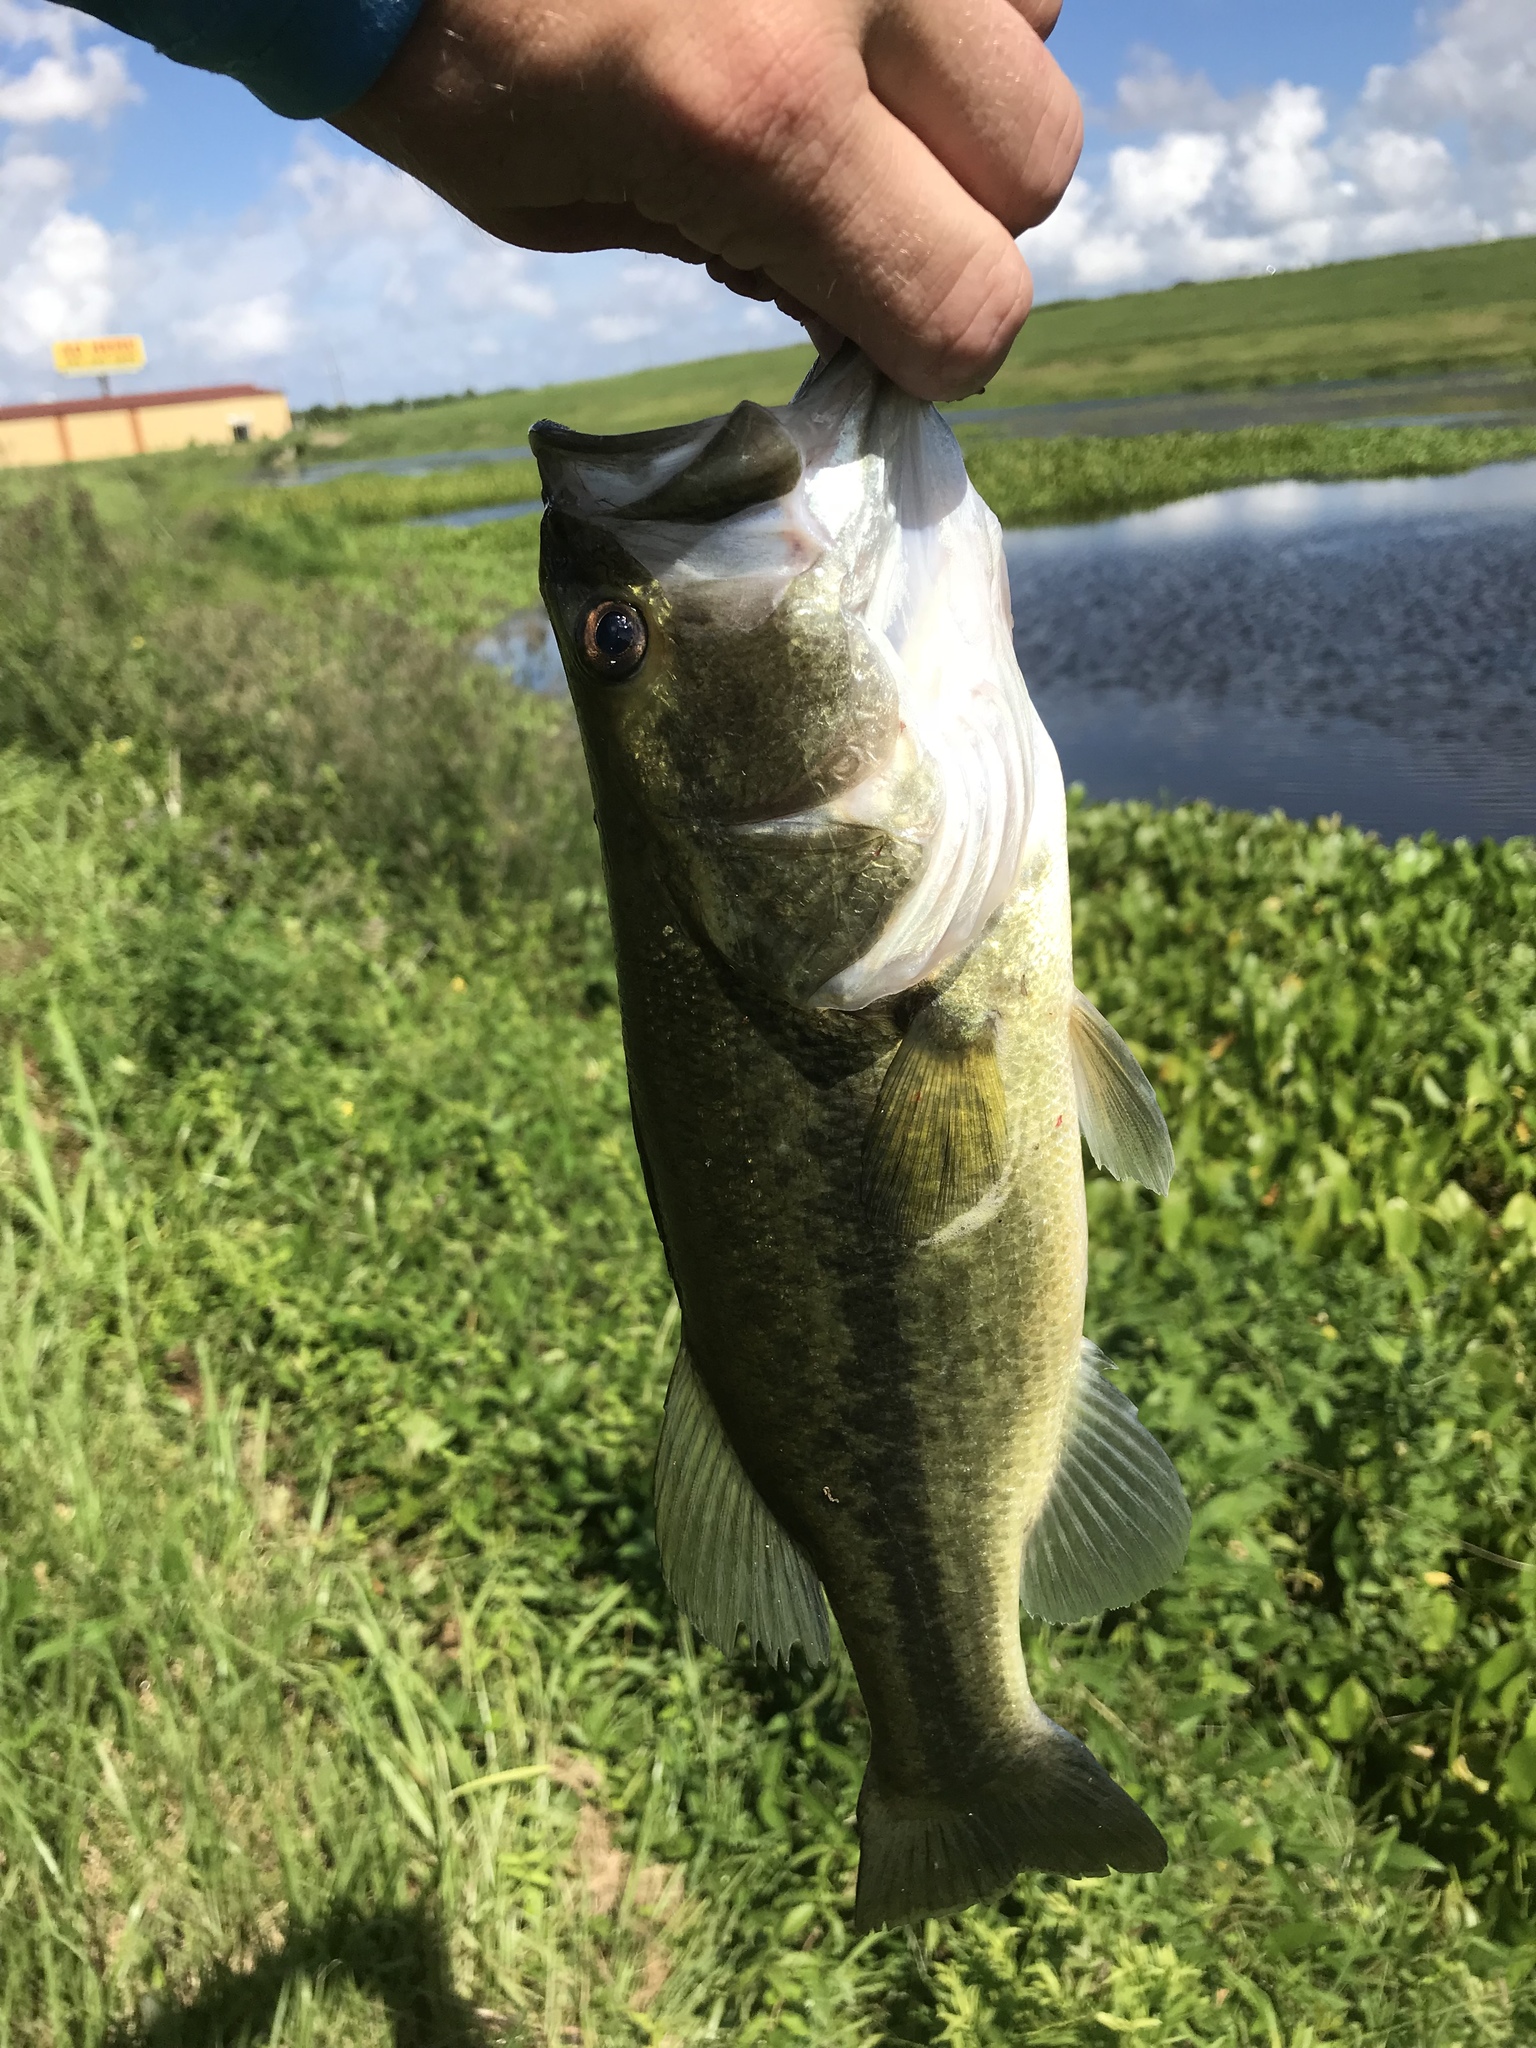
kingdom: Animalia
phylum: Chordata
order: Perciformes
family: Centrarchidae
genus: Micropterus
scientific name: Micropterus
